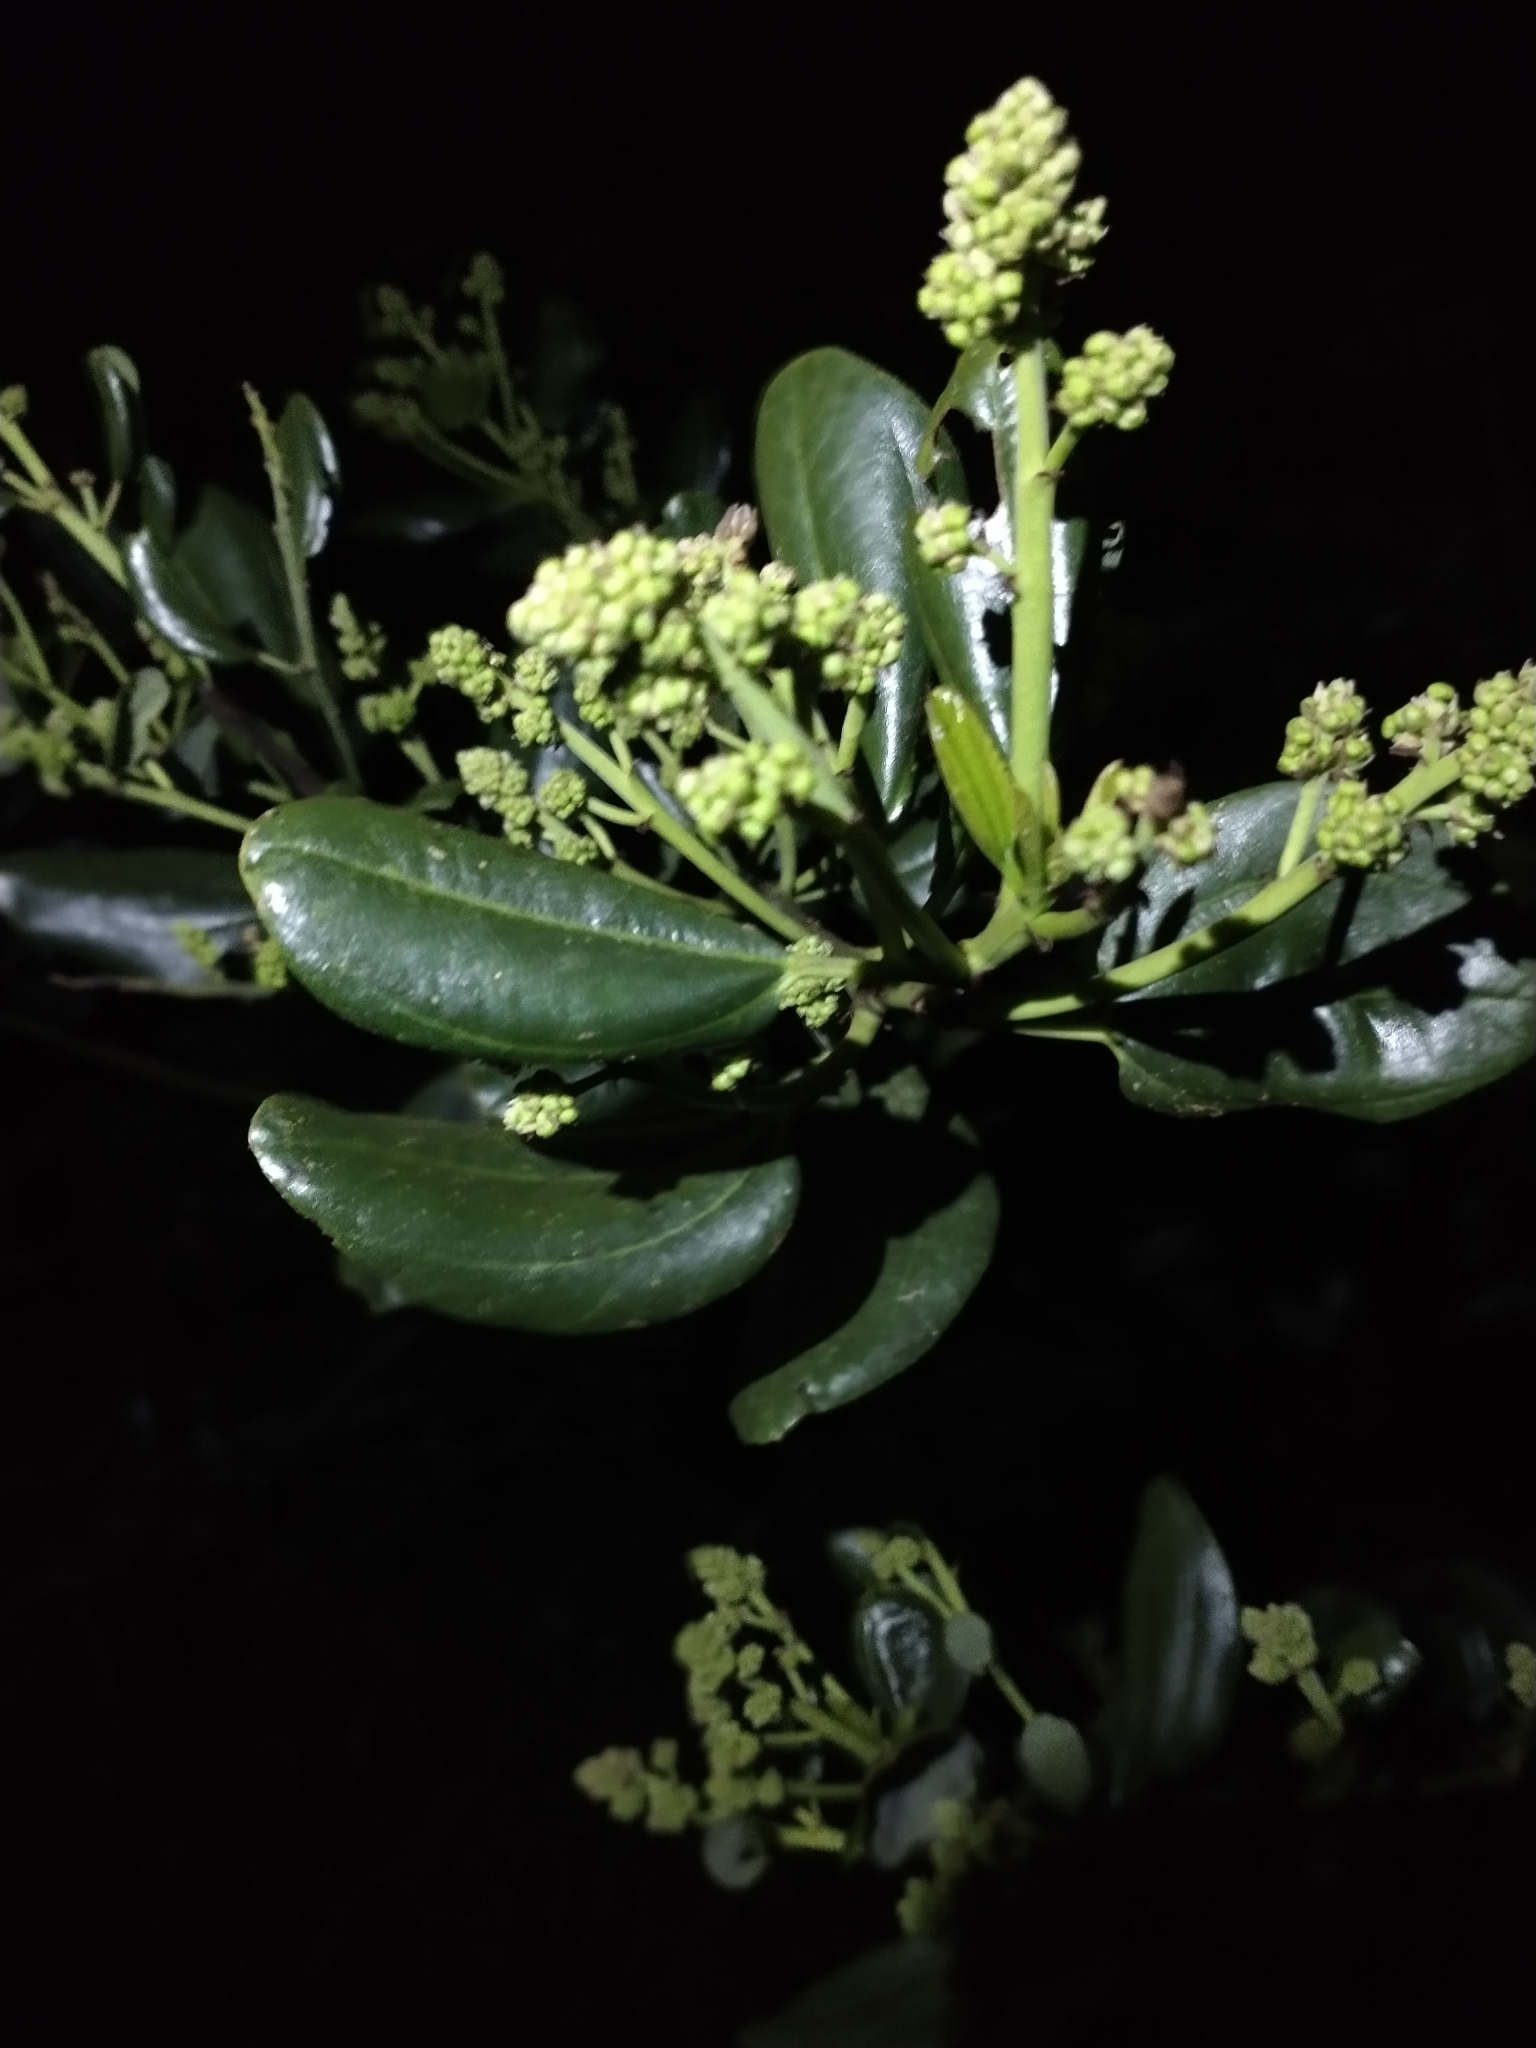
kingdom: Plantae
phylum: Tracheophyta
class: Magnoliopsida
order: Rosales
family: Rhamnaceae
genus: Ceanothus
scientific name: Ceanothus velutinus
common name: Snowbrush
